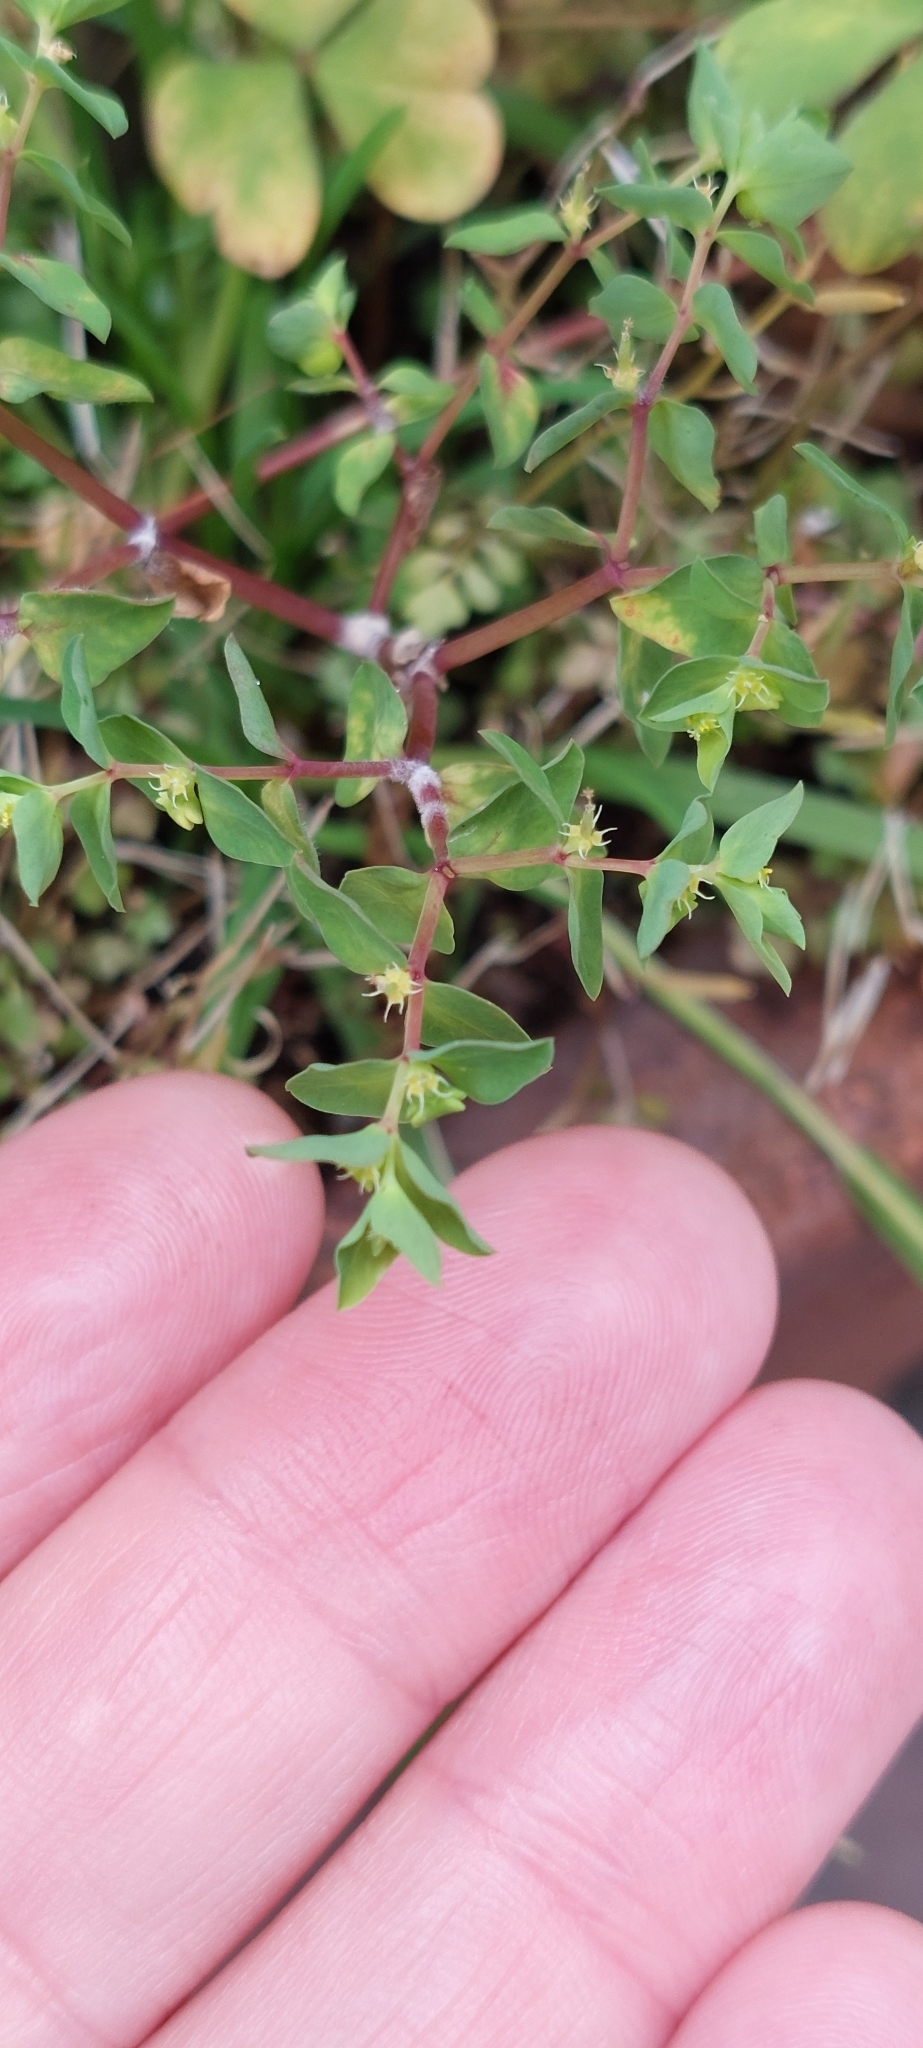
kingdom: Plantae
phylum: Tracheophyta
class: Magnoliopsida
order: Malpighiales
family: Euphorbiaceae
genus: Euphorbia
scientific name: Euphorbia peplus
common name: Petty spurge
